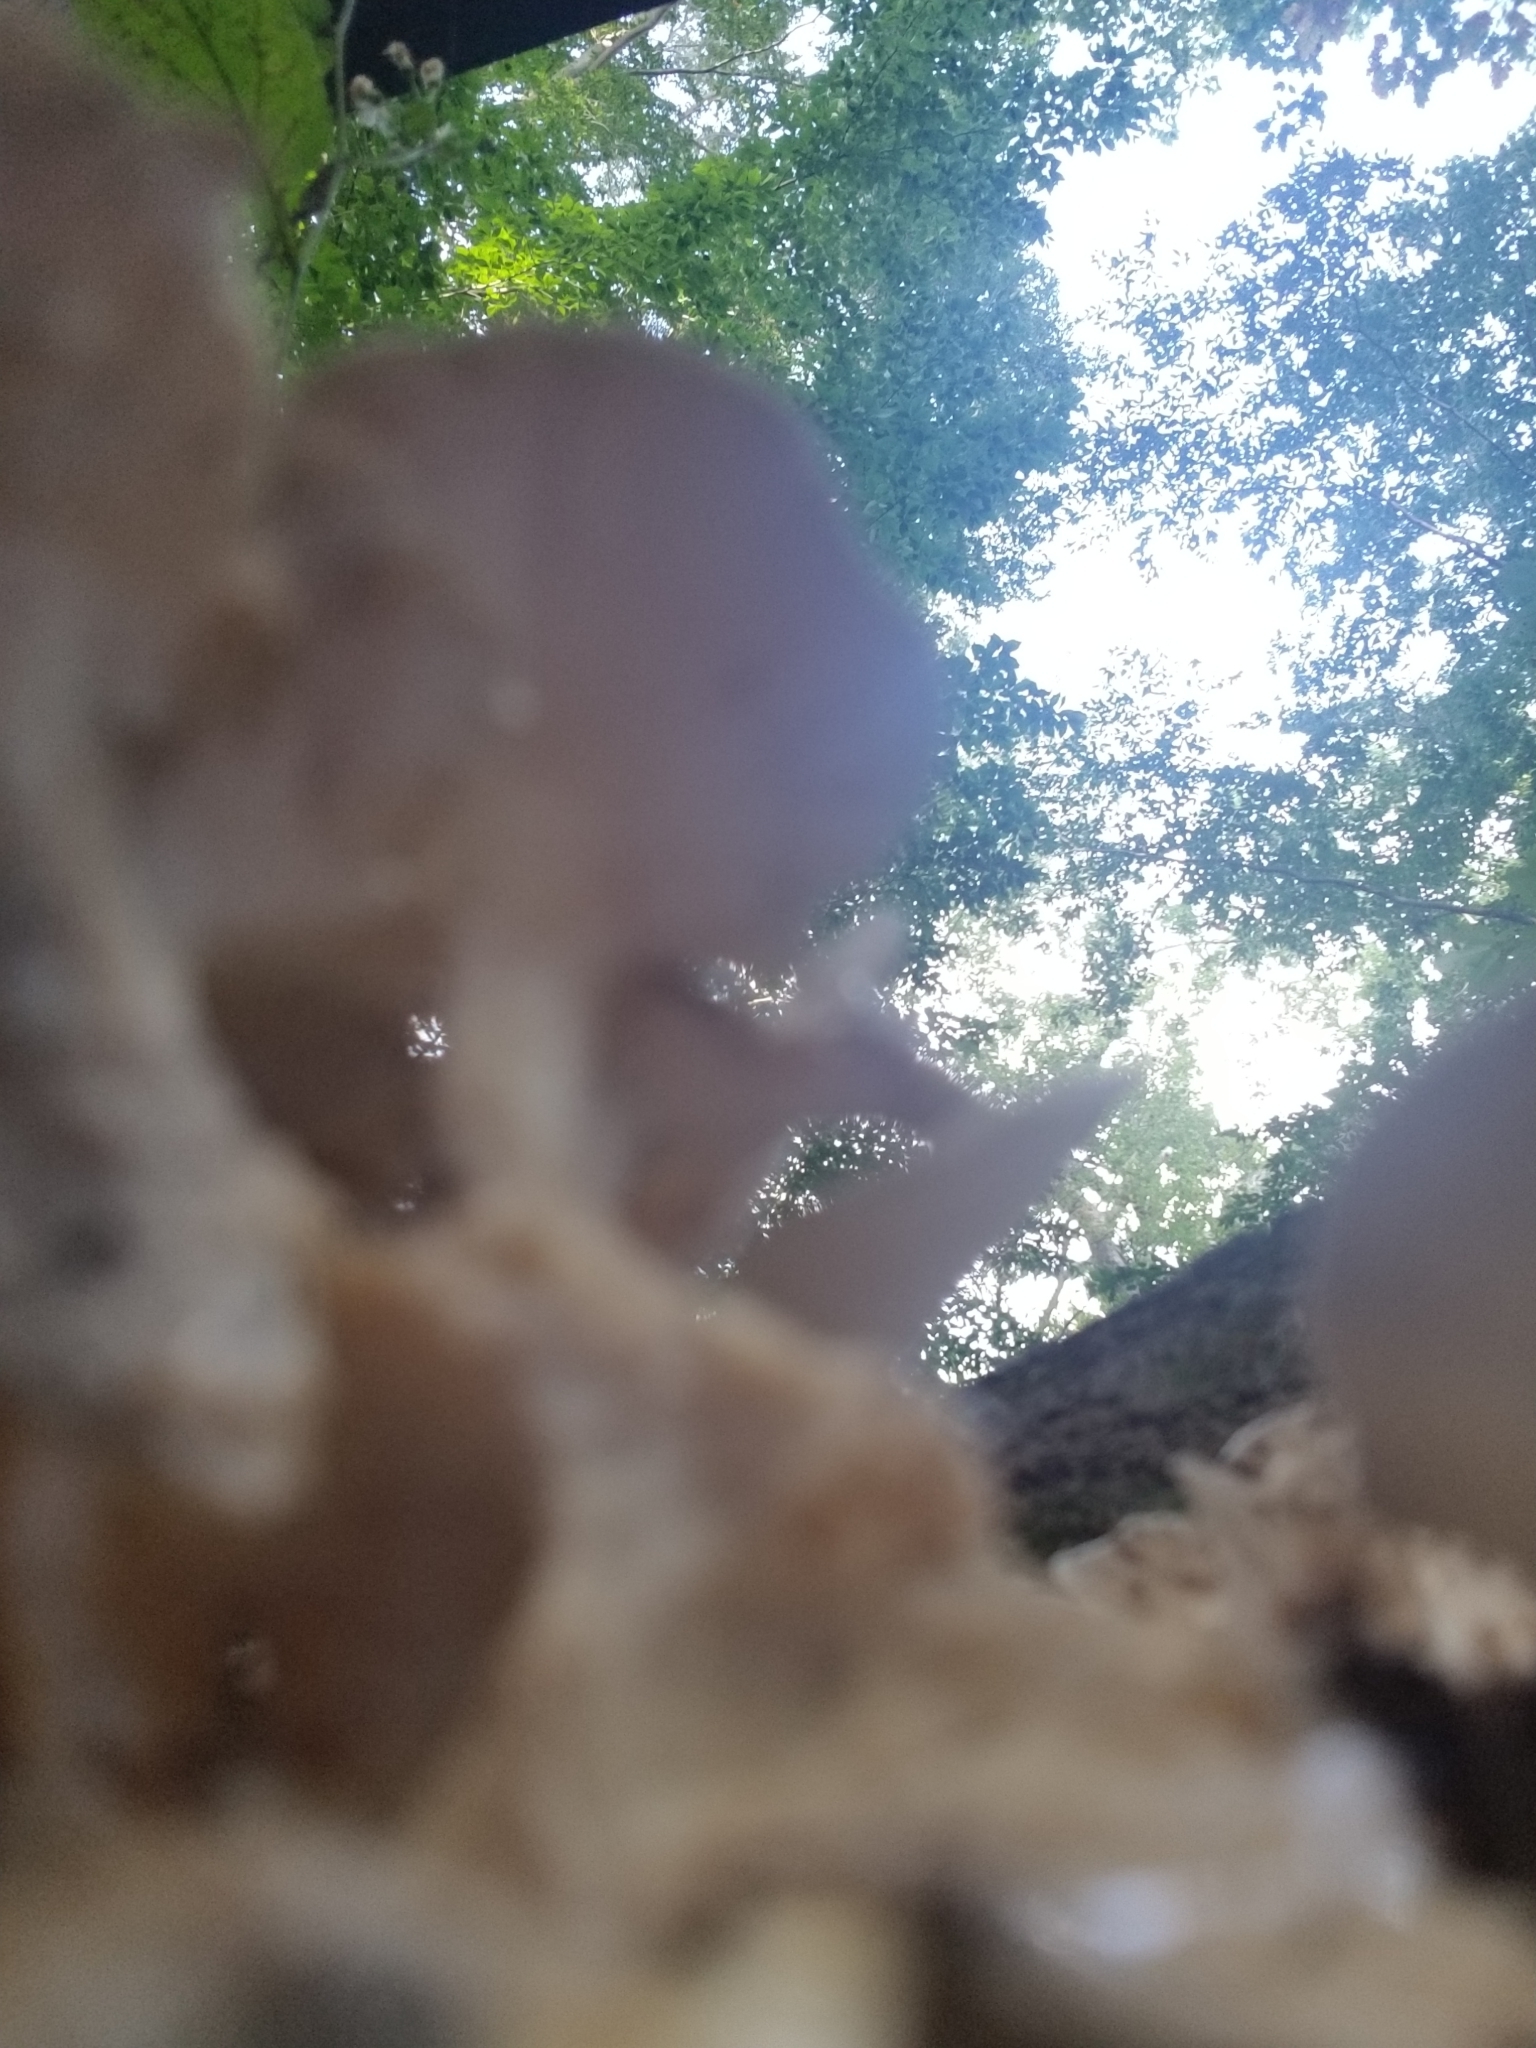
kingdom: Fungi
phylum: Basidiomycota
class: Agaricomycetes
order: Polyporales
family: Grifolaceae
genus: Grifola
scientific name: Grifola frondosa
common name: Hen of the woods
